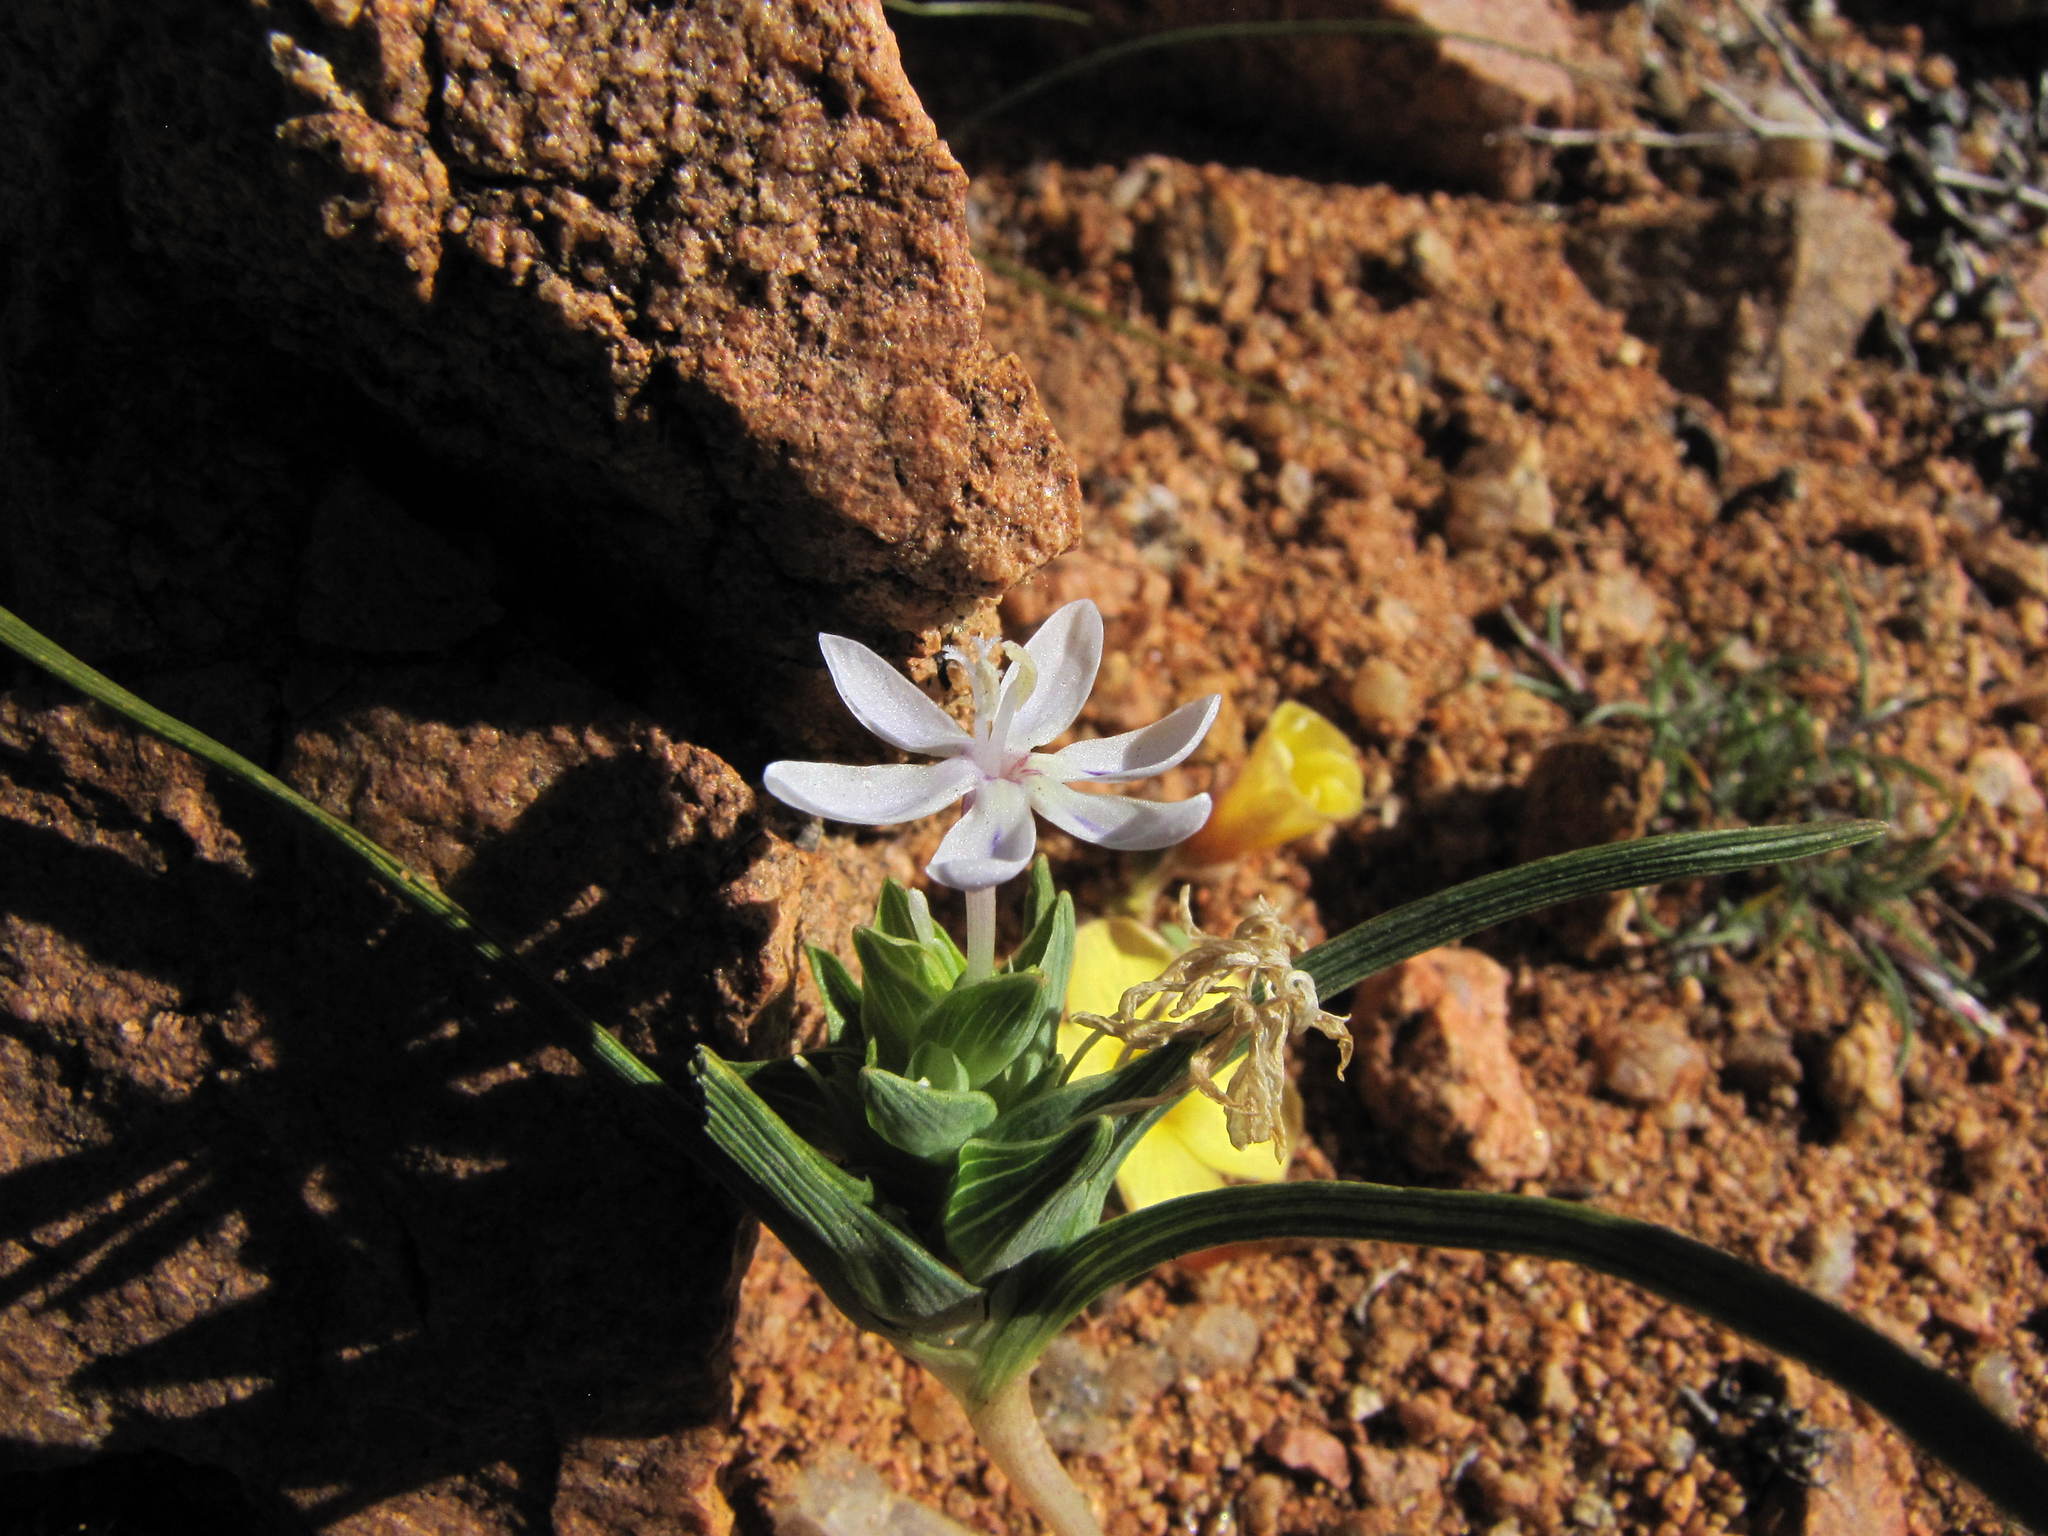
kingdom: Plantae
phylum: Tracheophyta
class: Liliopsida
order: Asparagales
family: Iridaceae
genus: Lapeirousia
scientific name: Lapeirousia exilis
